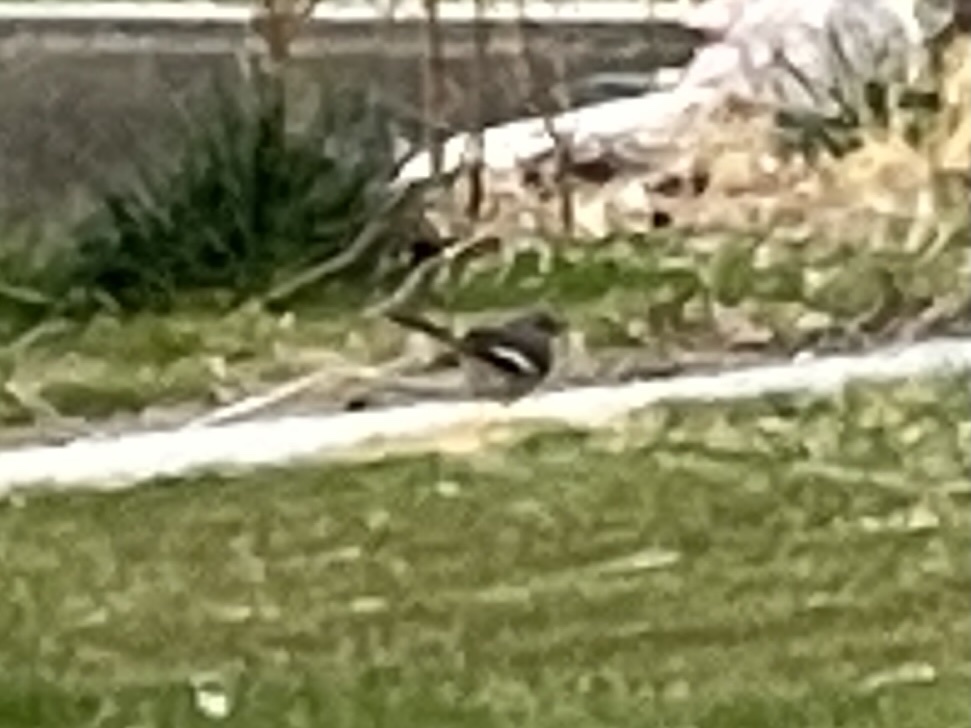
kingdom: Animalia
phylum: Chordata
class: Aves
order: Passeriformes
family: Mimidae
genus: Mimus
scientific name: Mimus polyglottos
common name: Northern mockingbird
